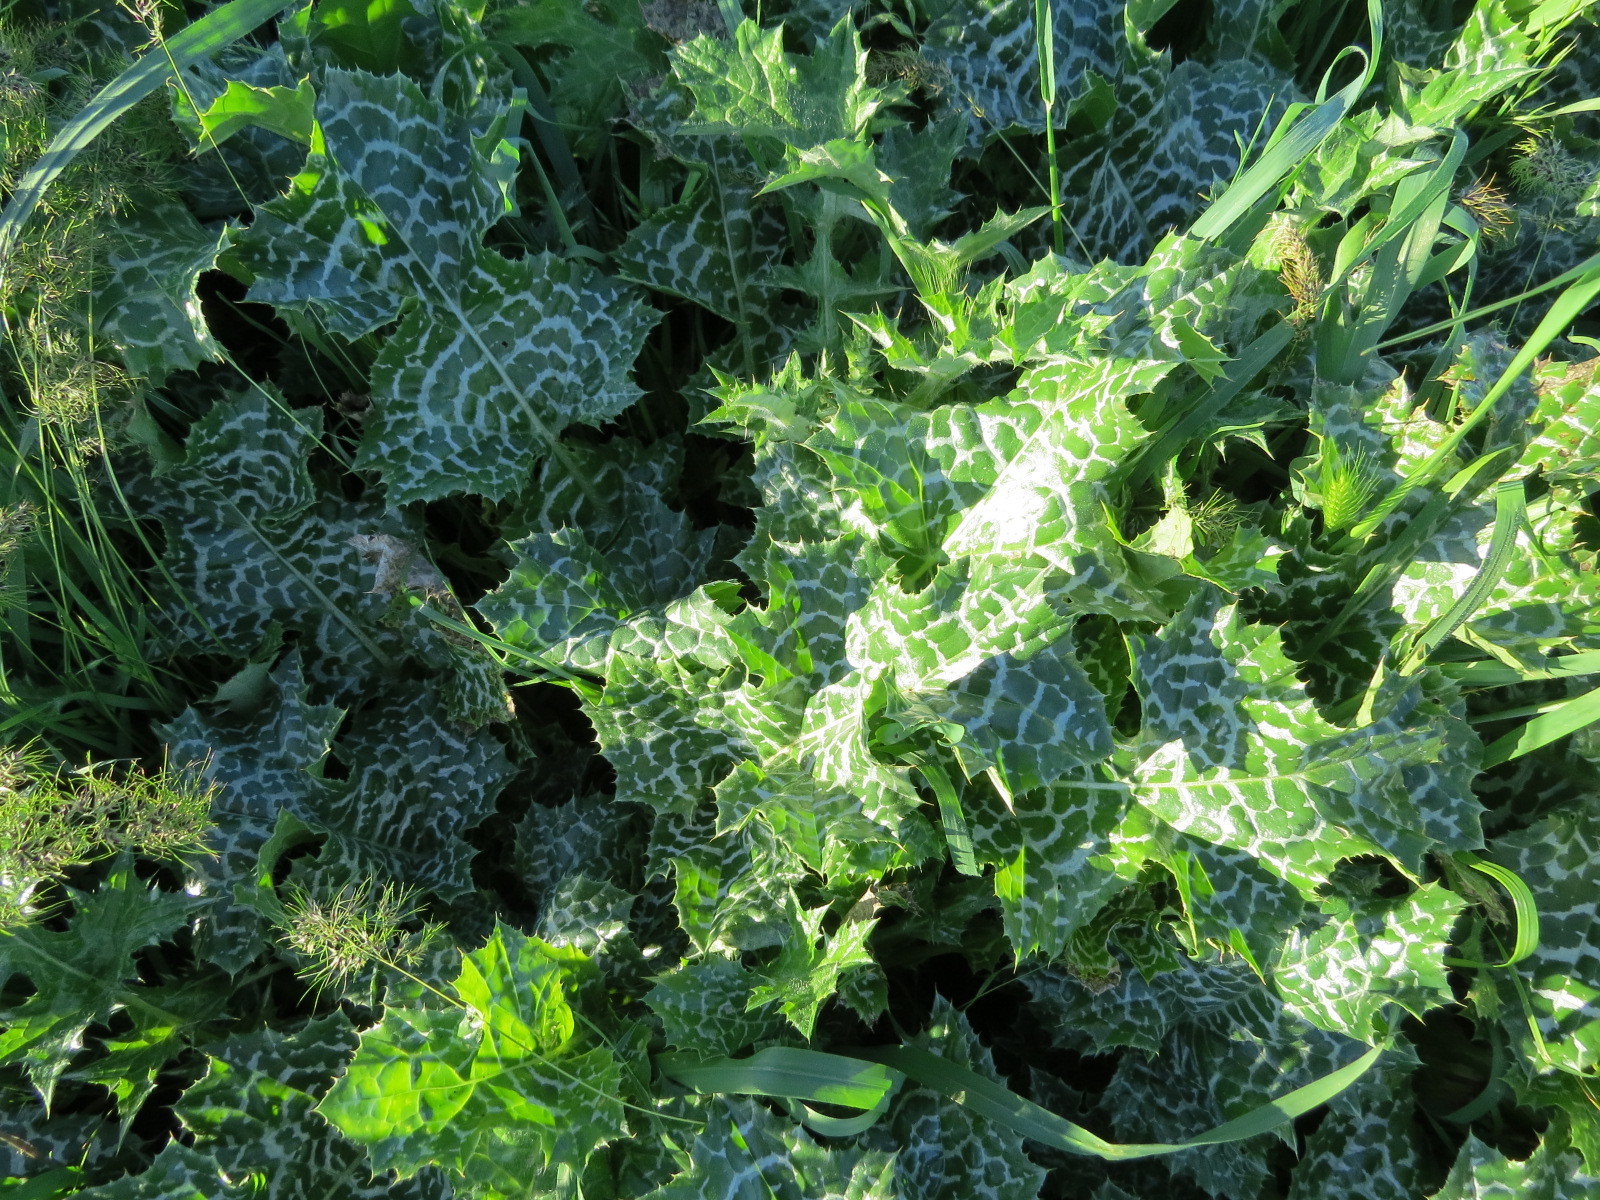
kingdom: Plantae
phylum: Tracheophyta
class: Magnoliopsida
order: Asterales
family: Asteraceae
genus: Silybum
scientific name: Silybum marianum
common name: Milk thistle
